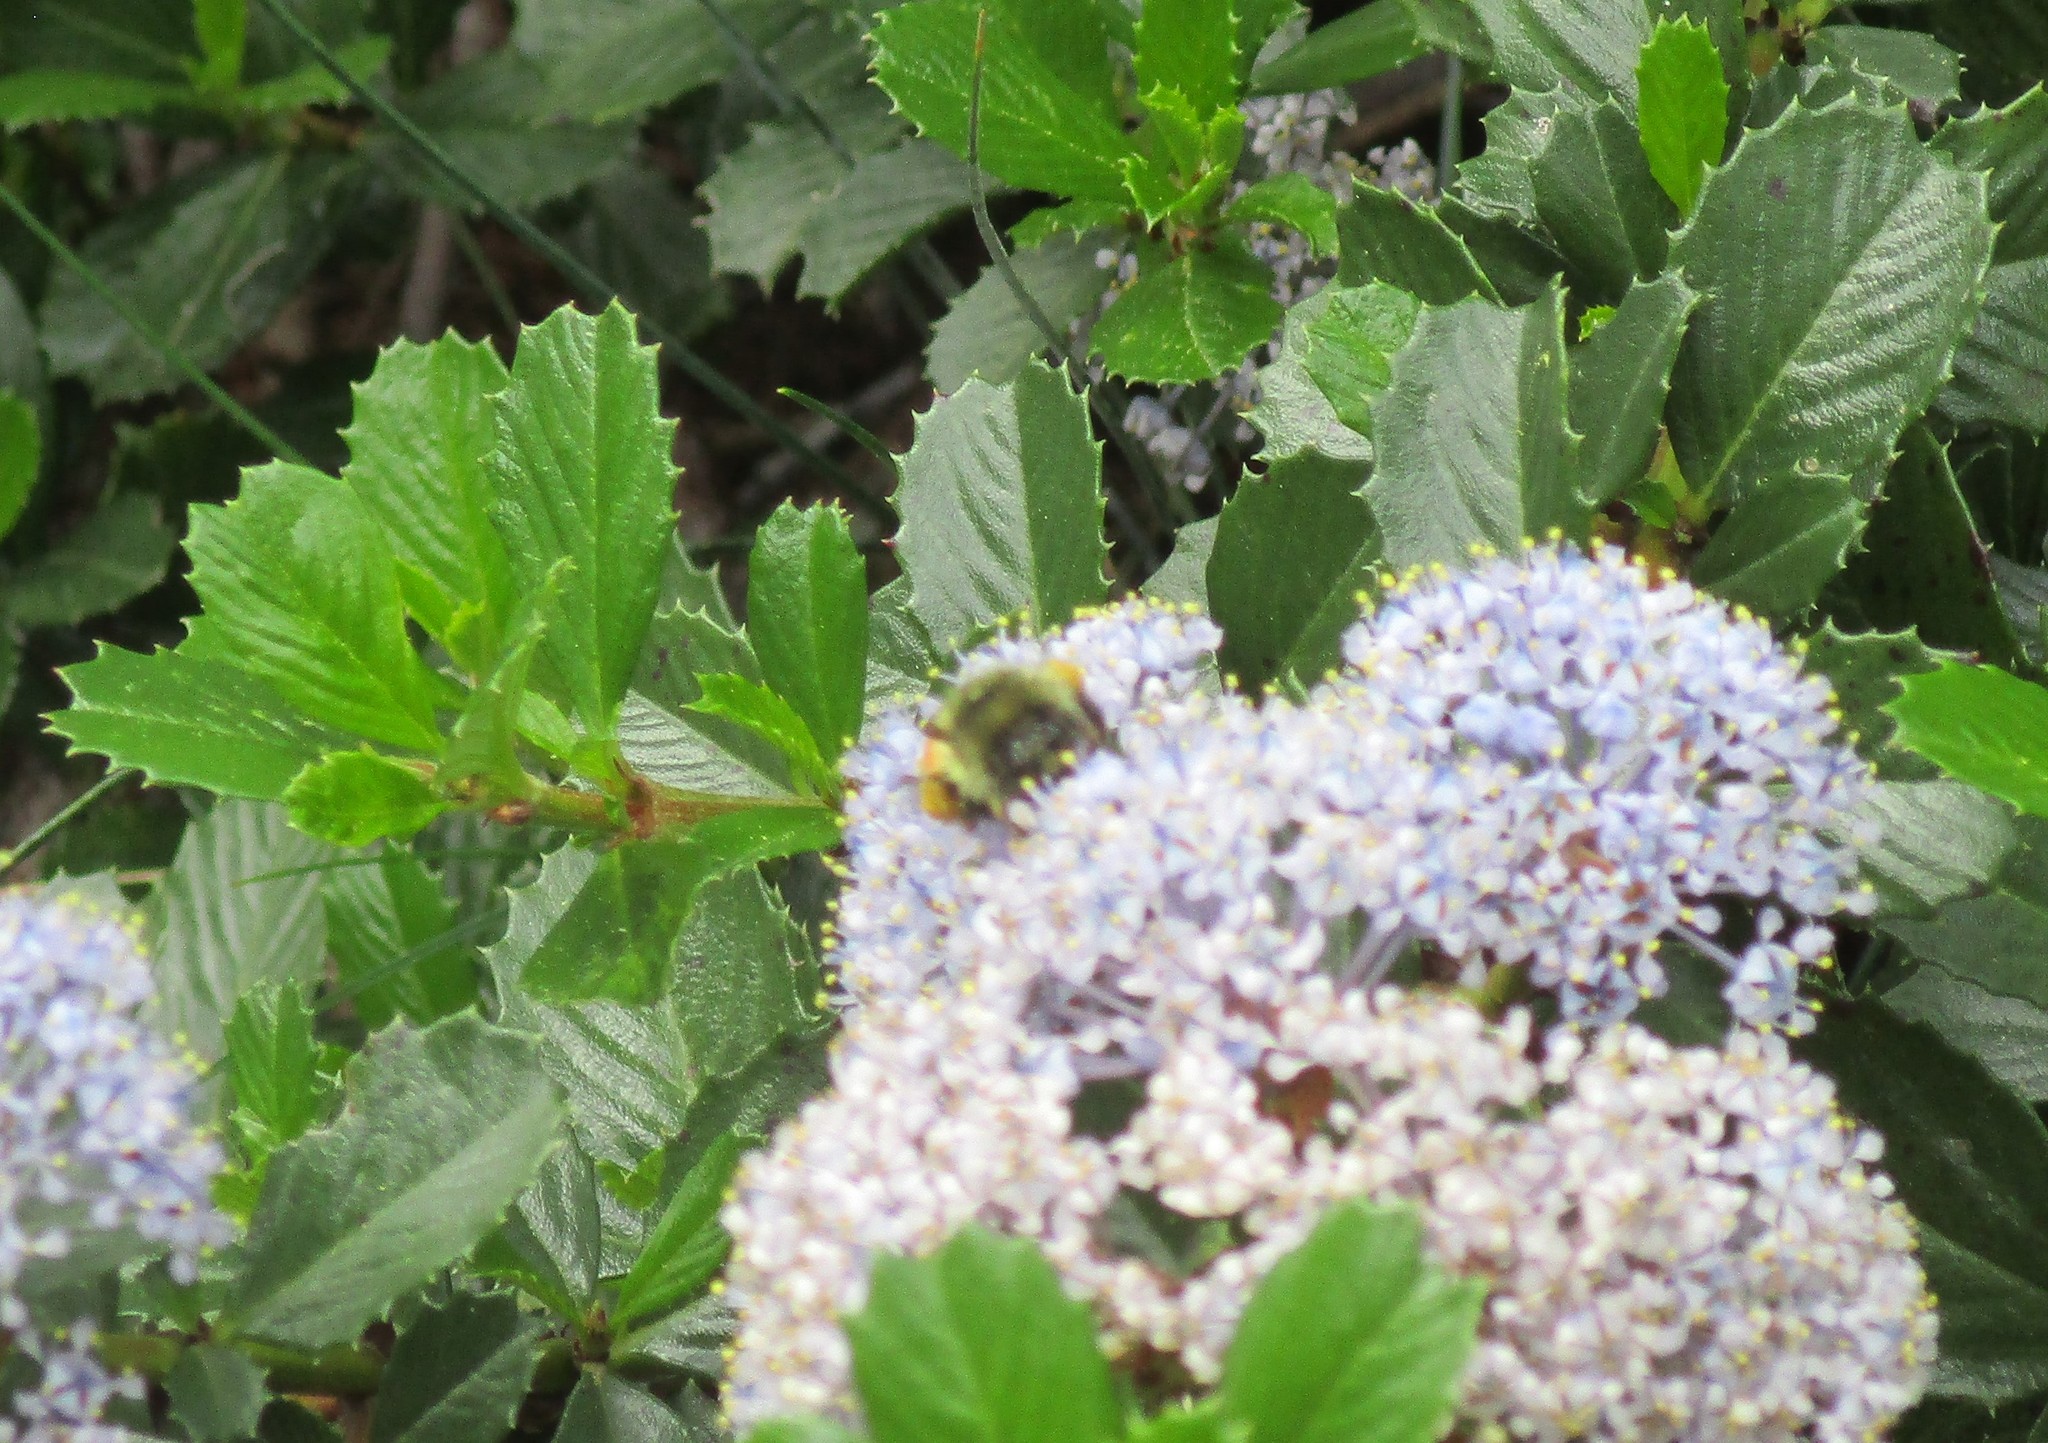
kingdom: Animalia
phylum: Arthropoda
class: Insecta
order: Hymenoptera
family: Apidae
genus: Bombus
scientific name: Bombus melanopygus
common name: Black tail bumble bee
